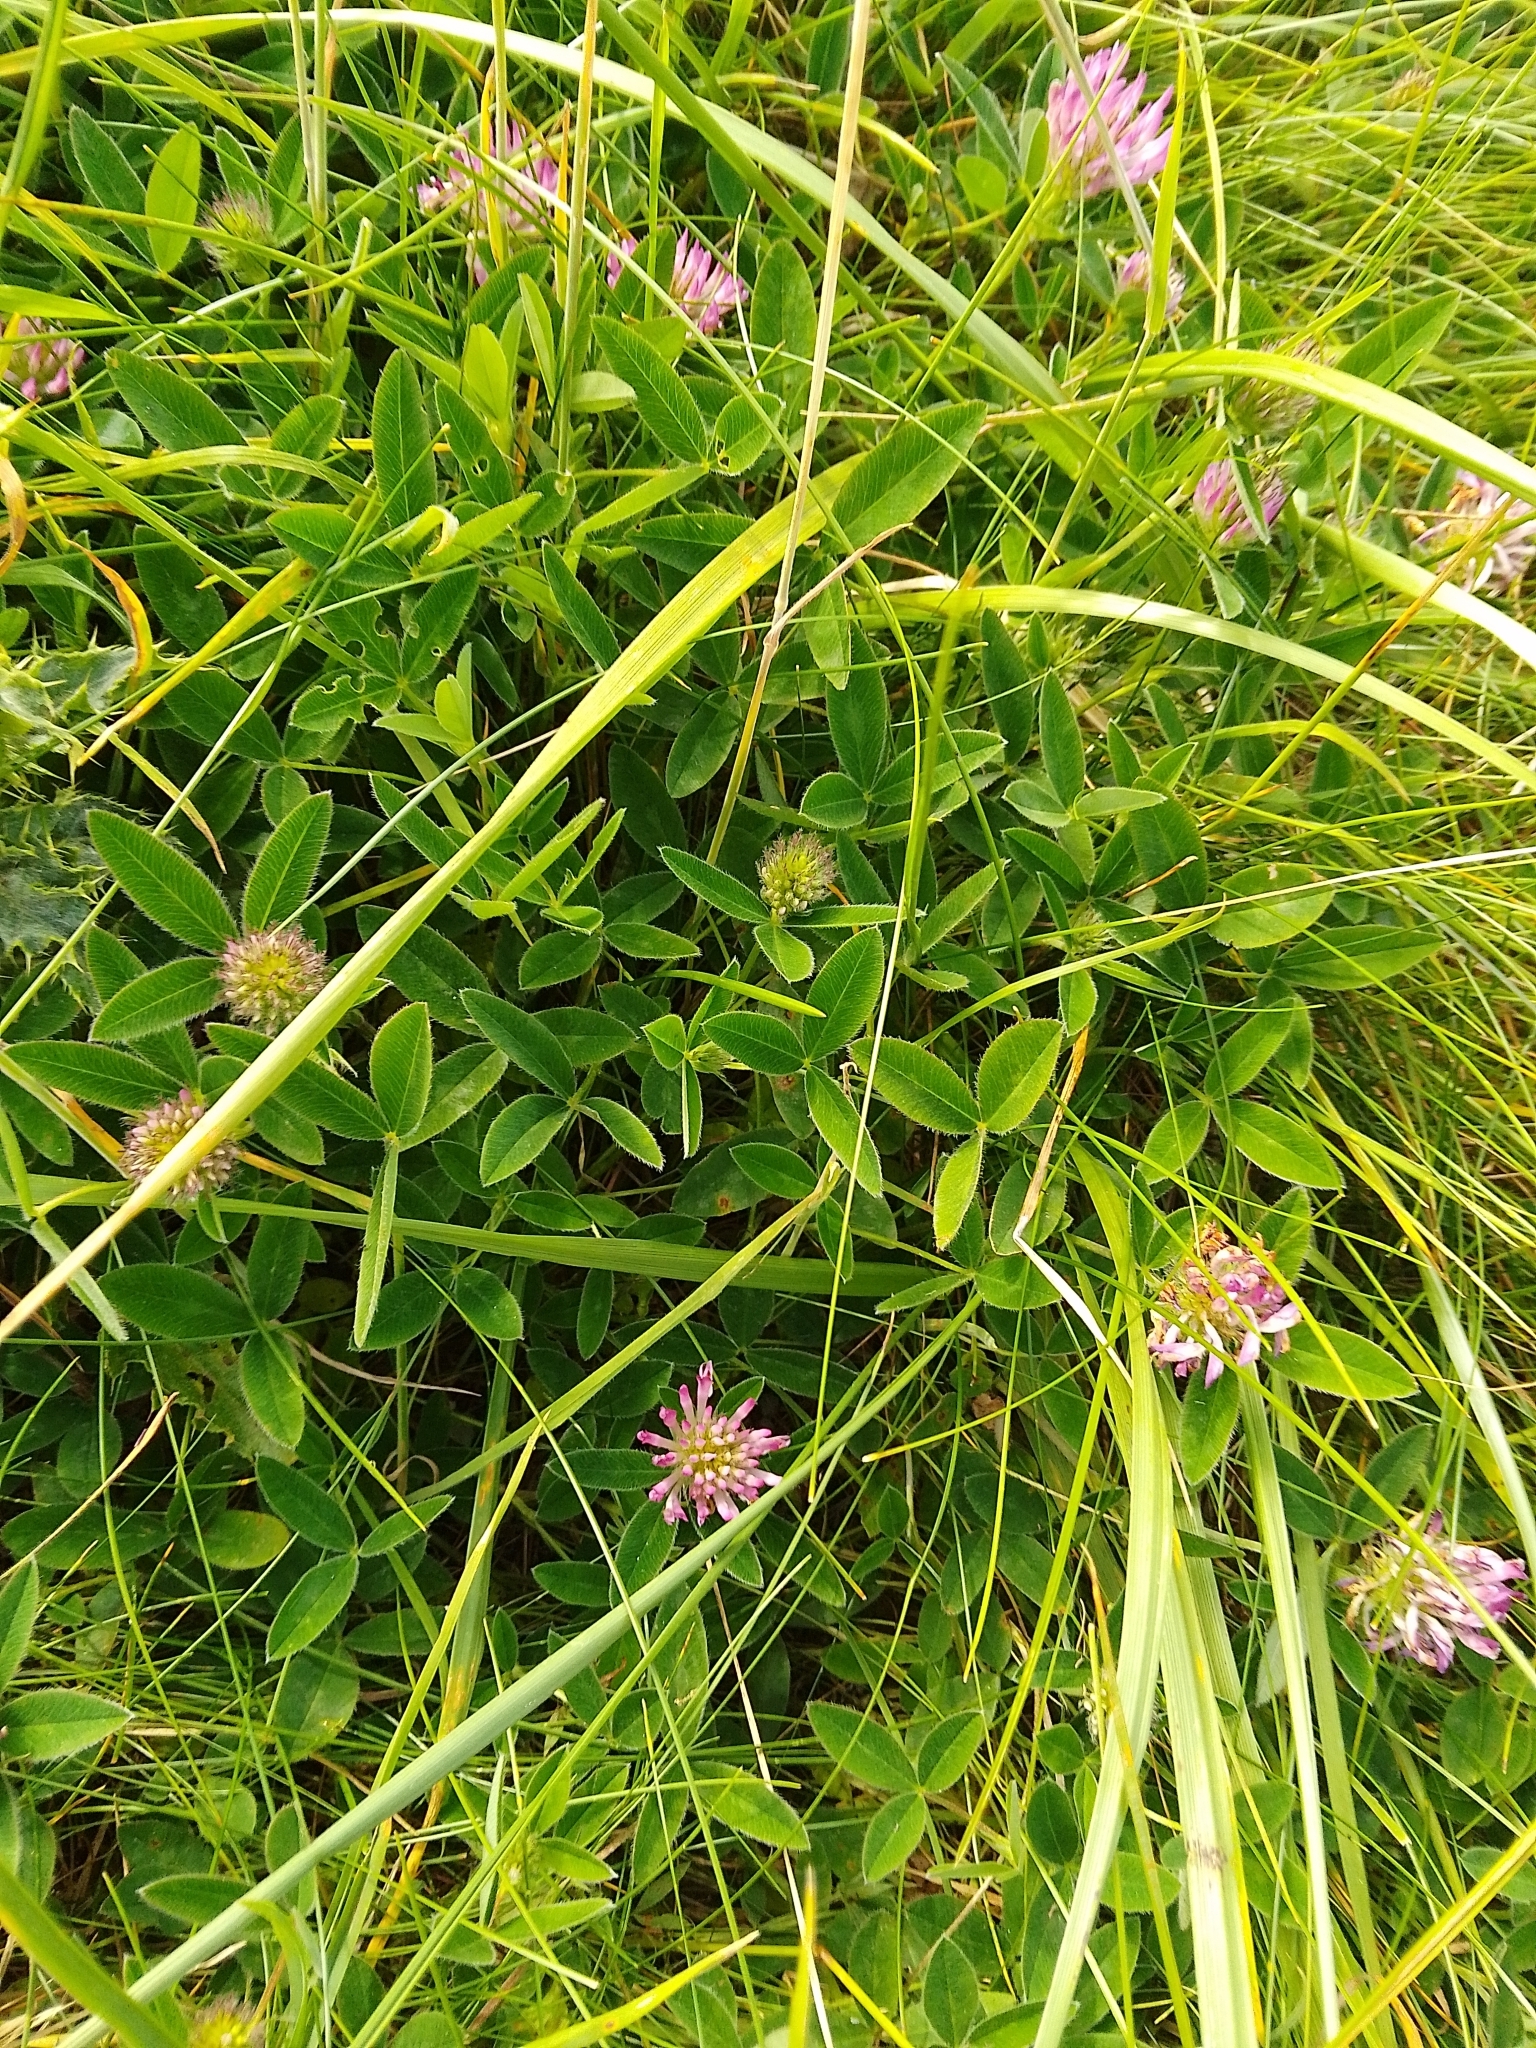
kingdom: Plantae
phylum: Tracheophyta
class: Magnoliopsida
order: Fabales
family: Fabaceae
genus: Trifolium
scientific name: Trifolium medium
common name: Zigzag clover
